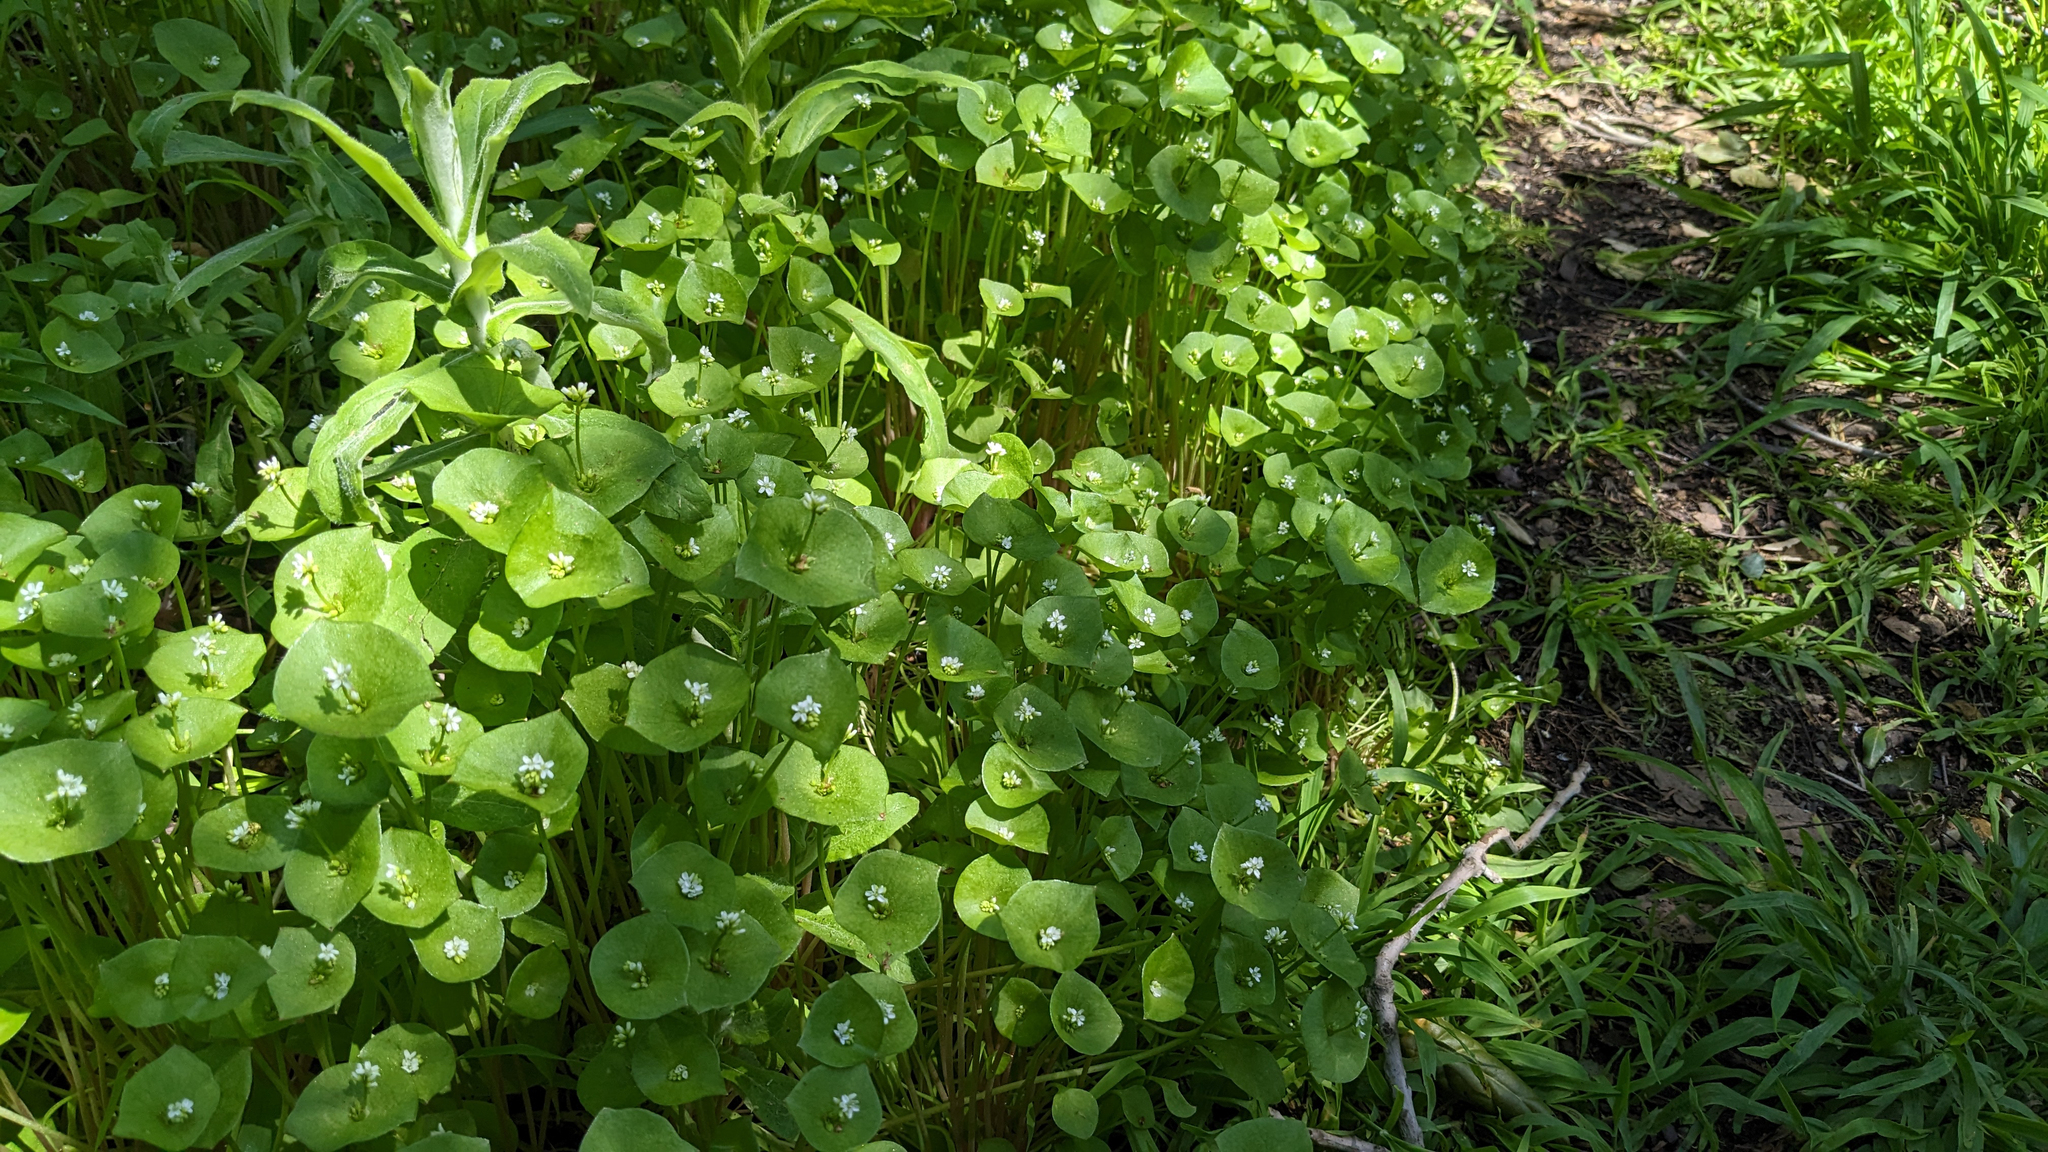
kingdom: Plantae
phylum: Tracheophyta
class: Magnoliopsida
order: Caryophyllales
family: Montiaceae
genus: Claytonia
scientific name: Claytonia perfoliata
